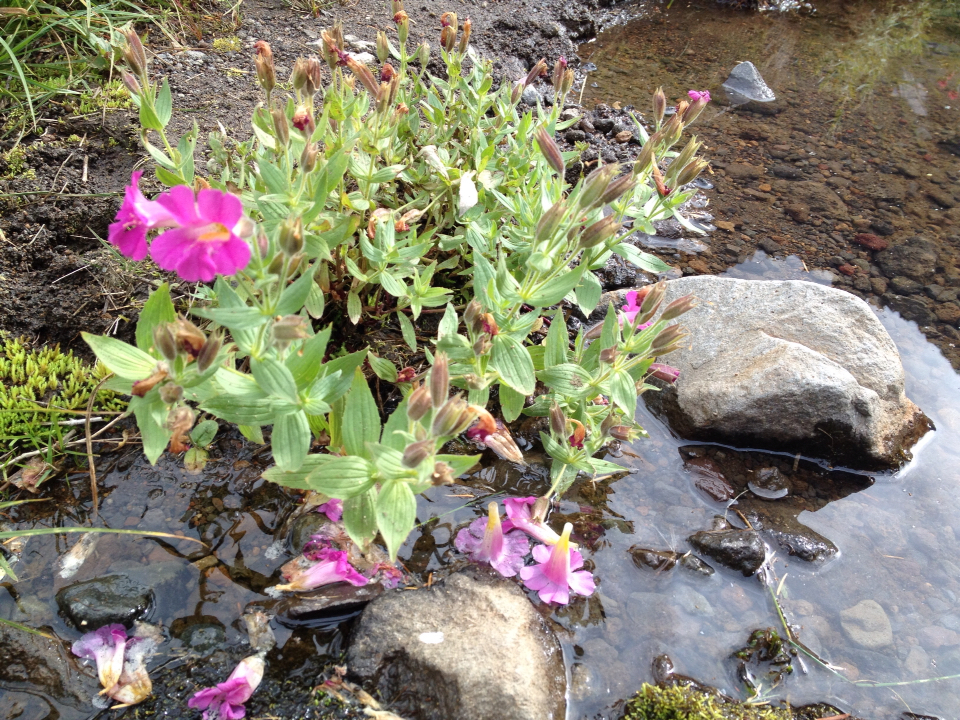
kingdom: Plantae
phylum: Tracheophyta
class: Magnoliopsida
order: Lamiales
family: Phrymaceae
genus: Erythranthe
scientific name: Erythranthe lewisii
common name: Lewis's monkey-flower
